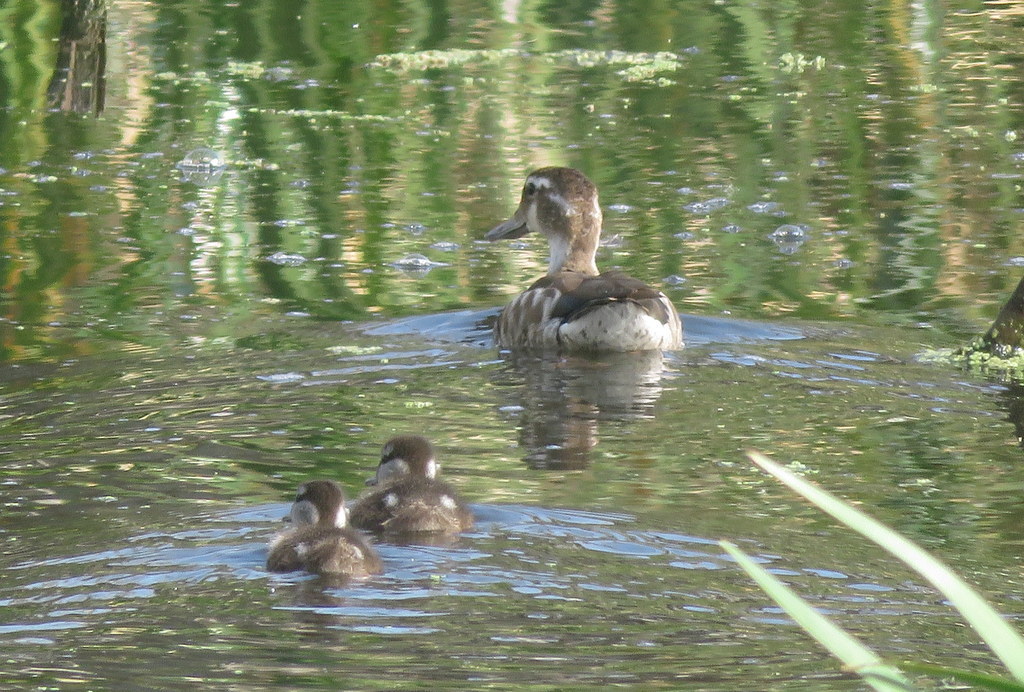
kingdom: Animalia
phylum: Chordata
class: Aves
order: Anseriformes
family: Anatidae
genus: Callonetta
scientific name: Callonetta leucophrys
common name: Ringed teal
